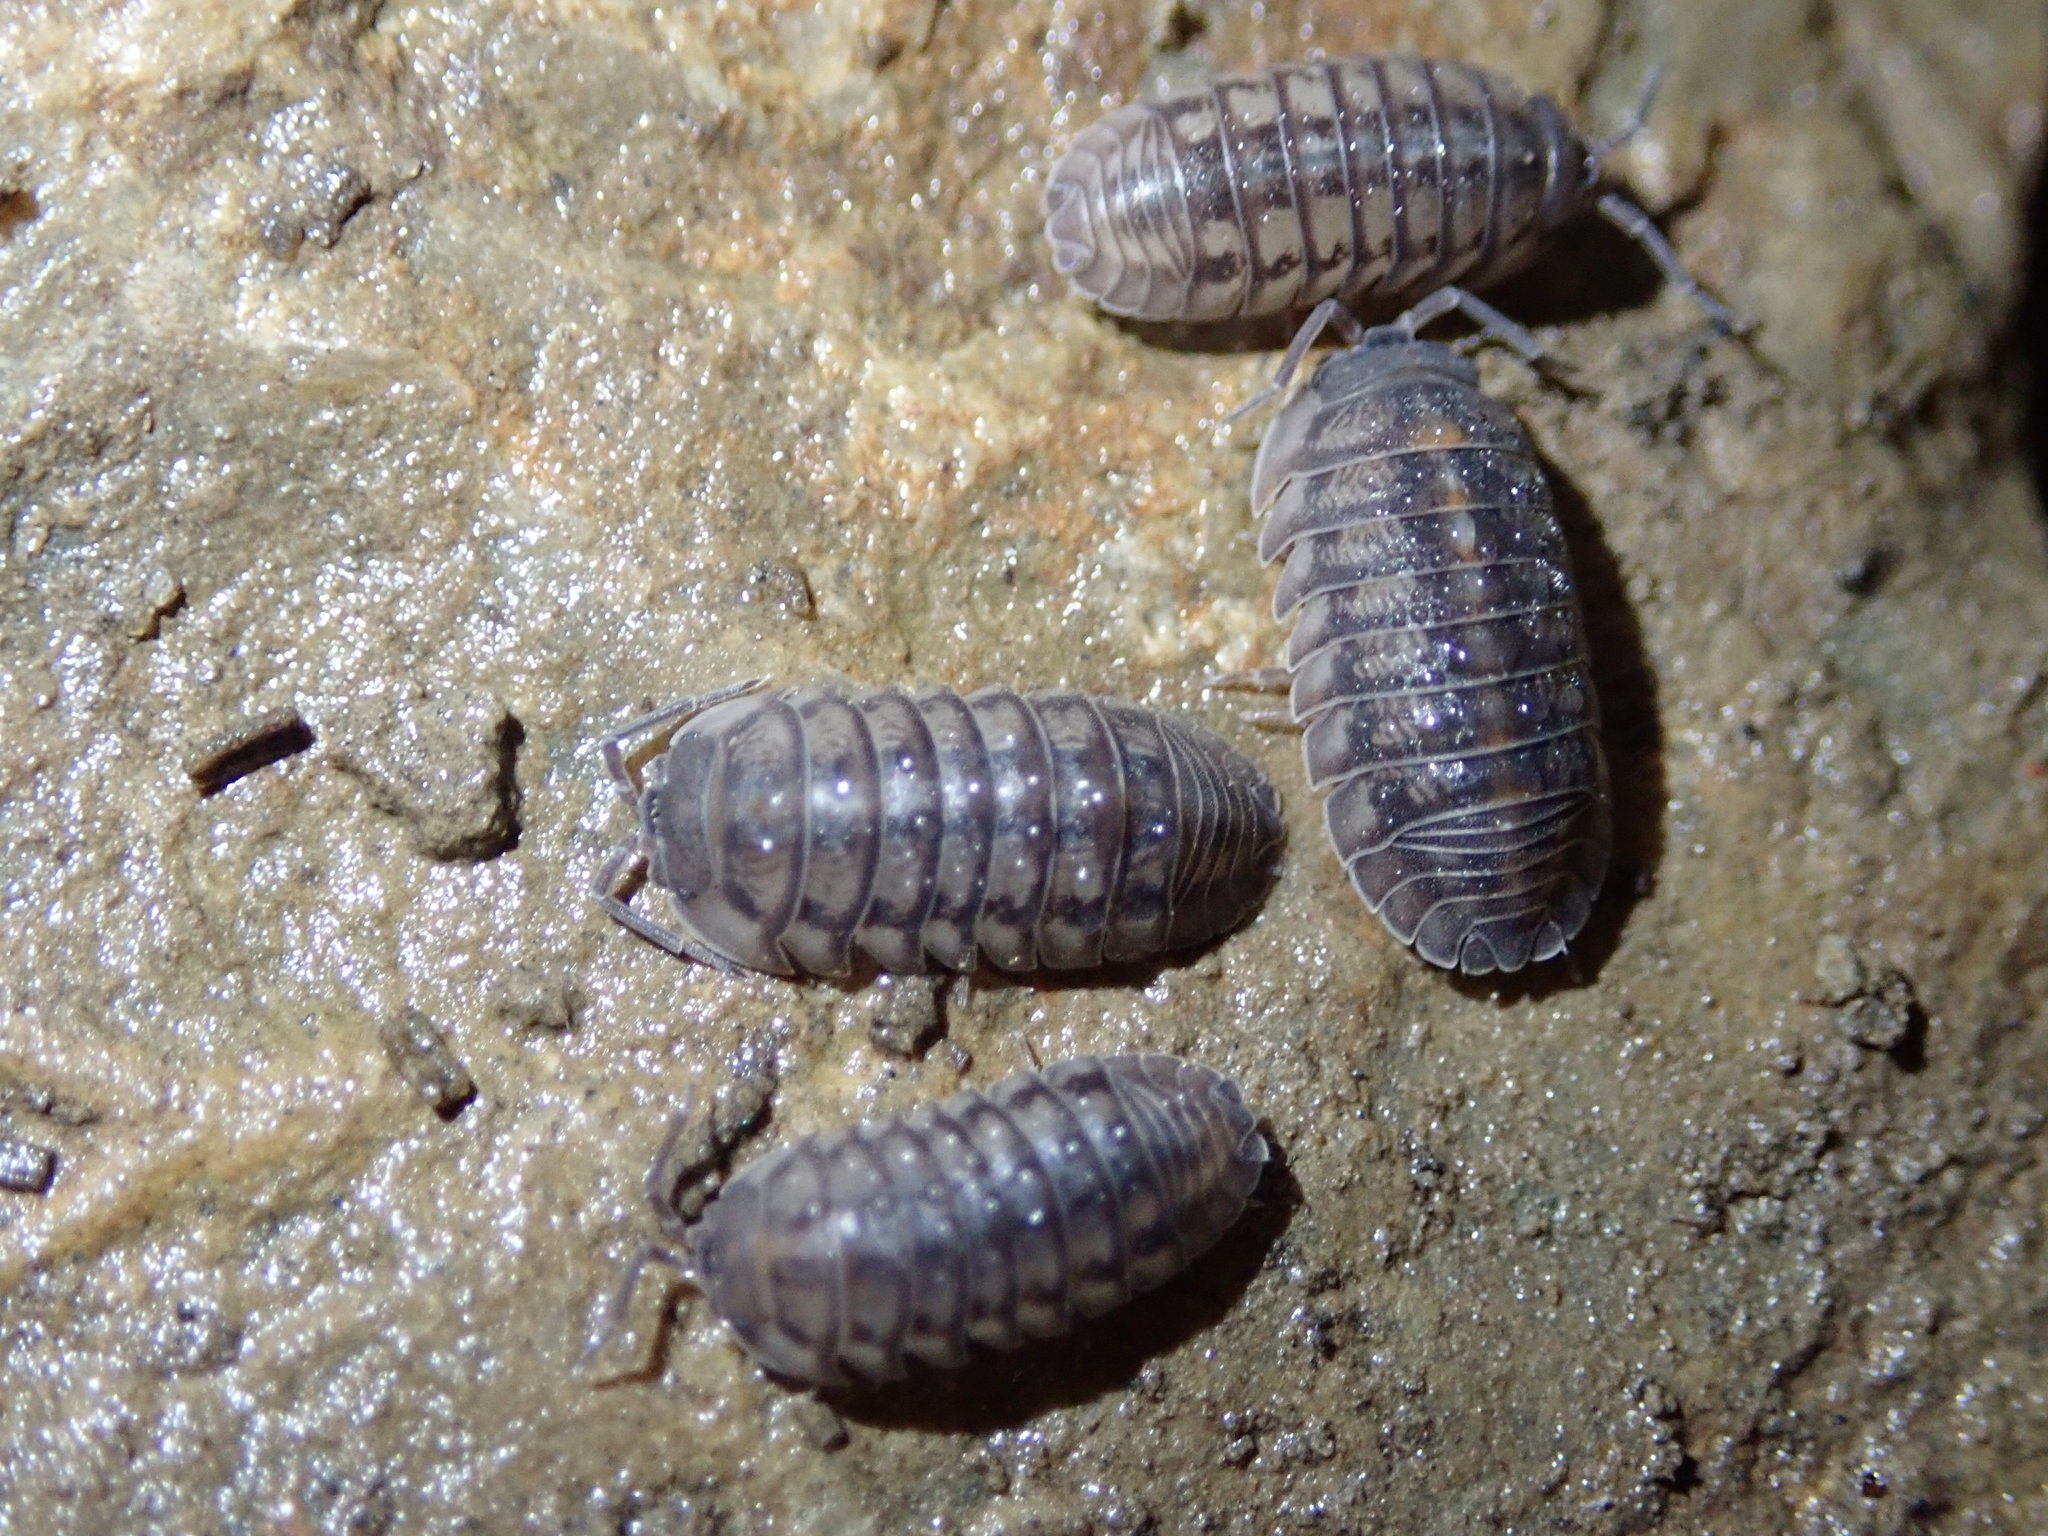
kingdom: Animalia
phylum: Arthropoda
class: Malacostraca
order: Isopoda
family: Armadillidiidae
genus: Armadillidium
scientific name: Armadillidium nasatum
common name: Isopod
